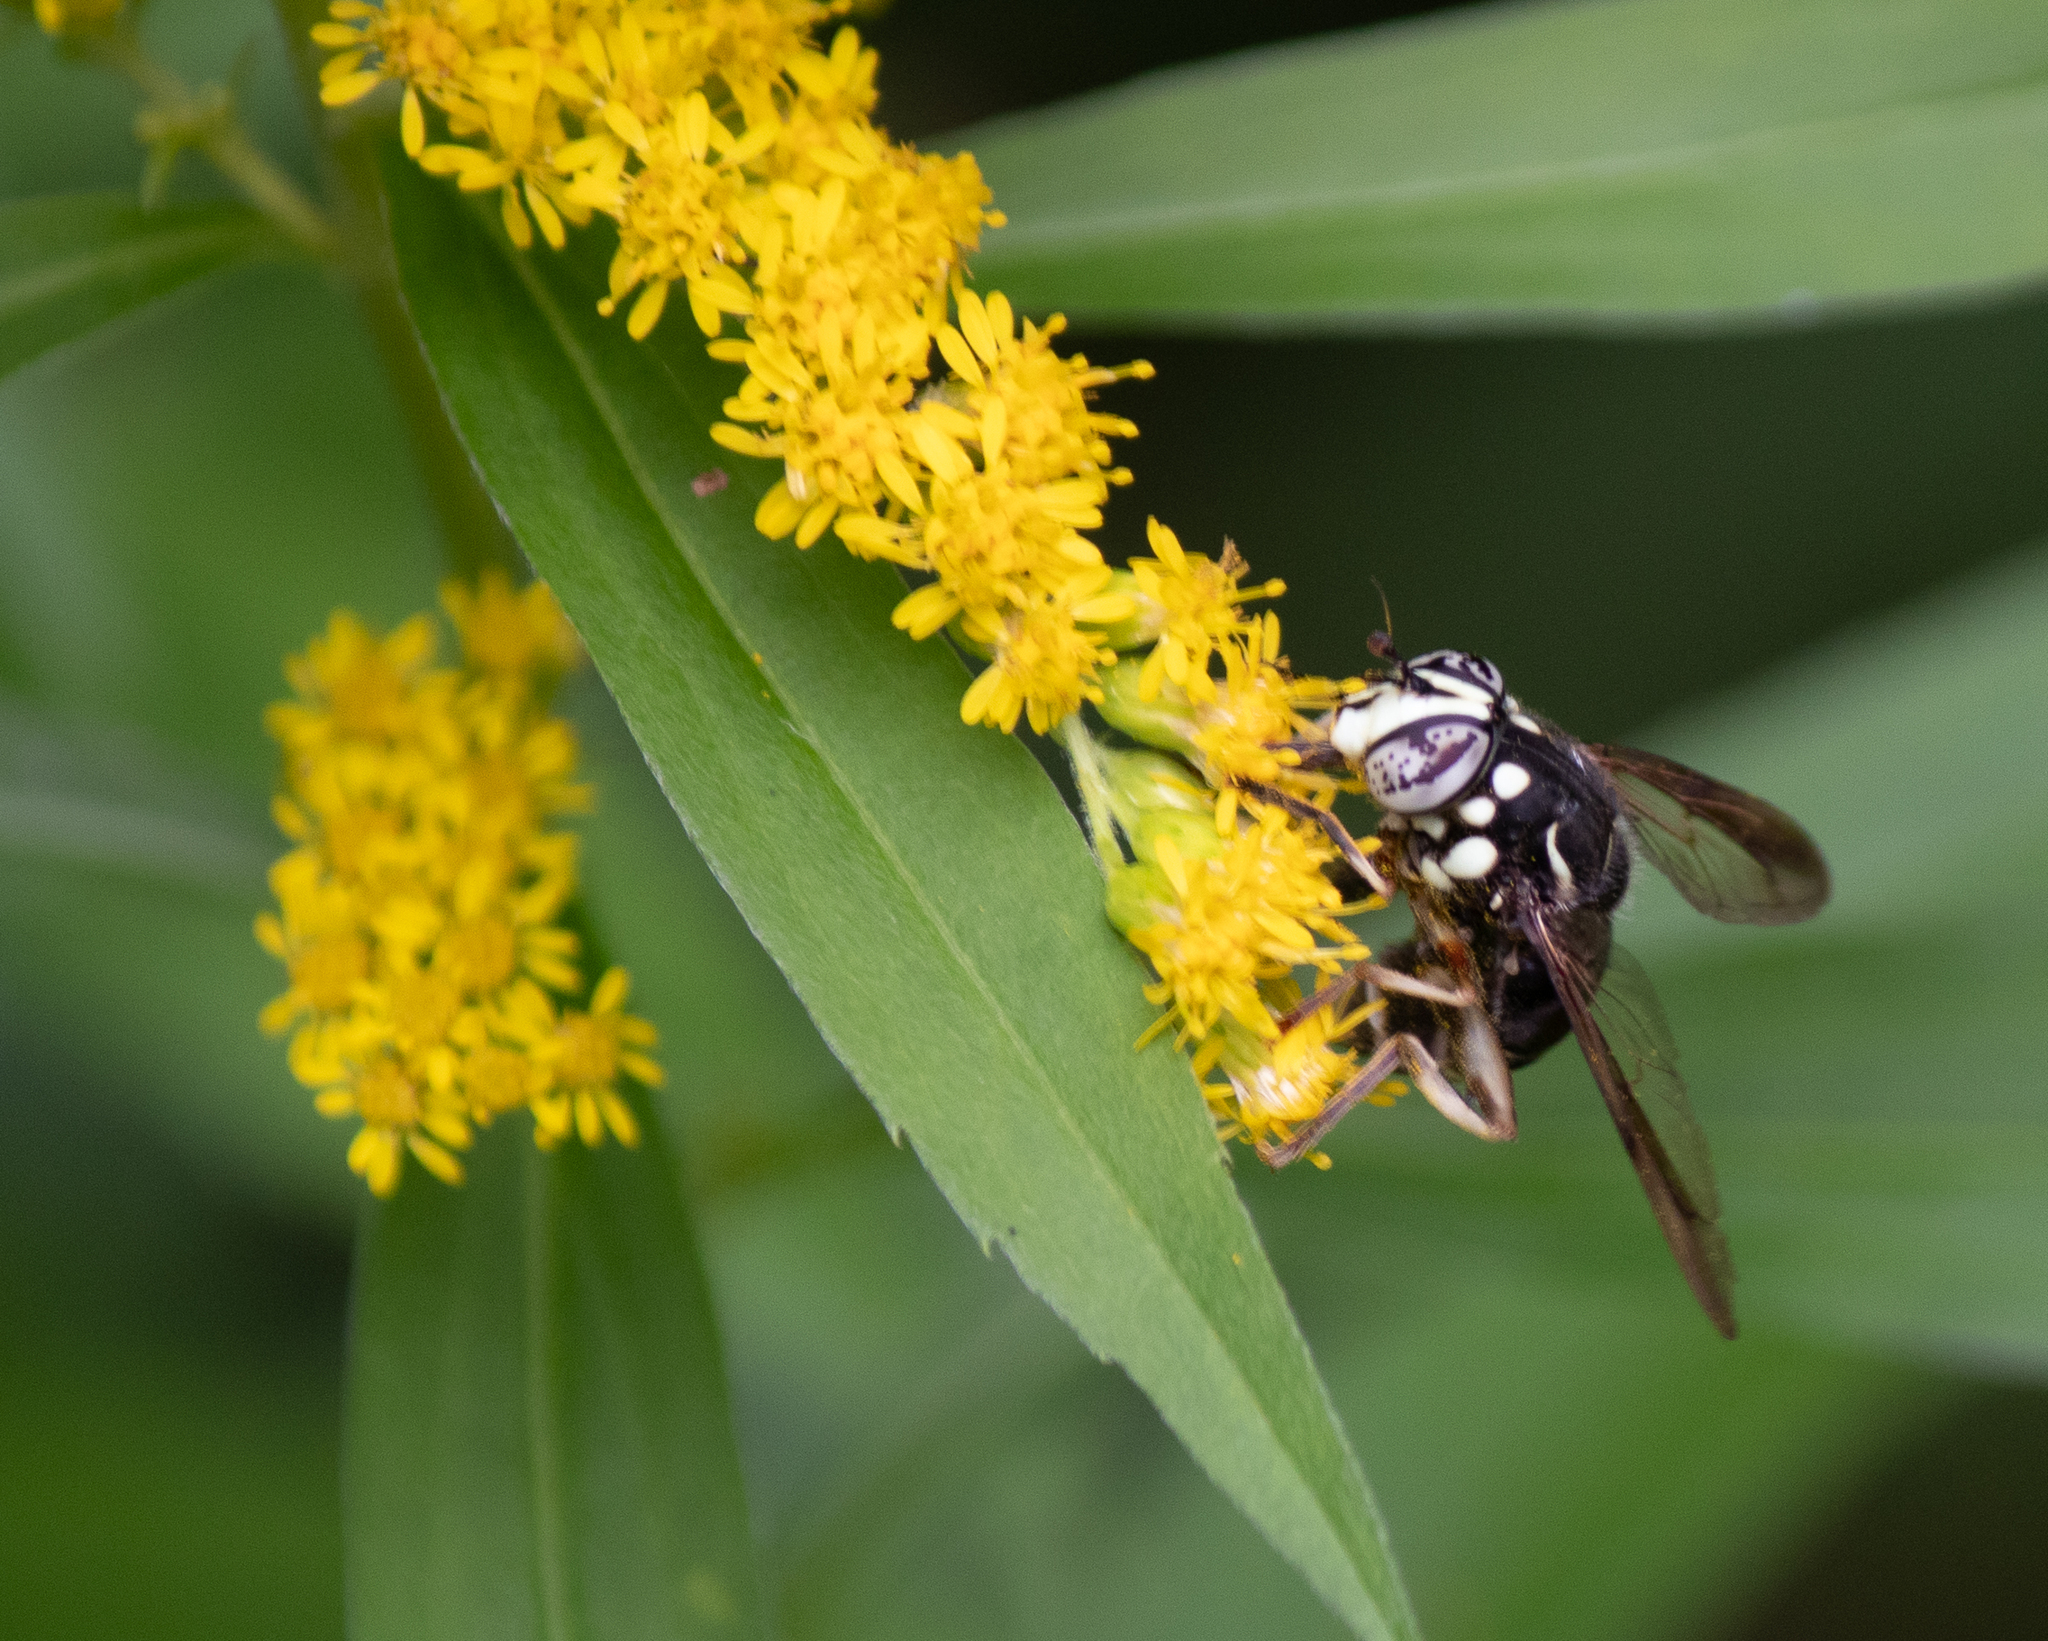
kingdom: Animalia
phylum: Arthropoda
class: Insecta
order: Diptera
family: Syrphidae
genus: Spilomyia
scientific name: Spilomyia fusca
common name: Bald-faced hornet fly
